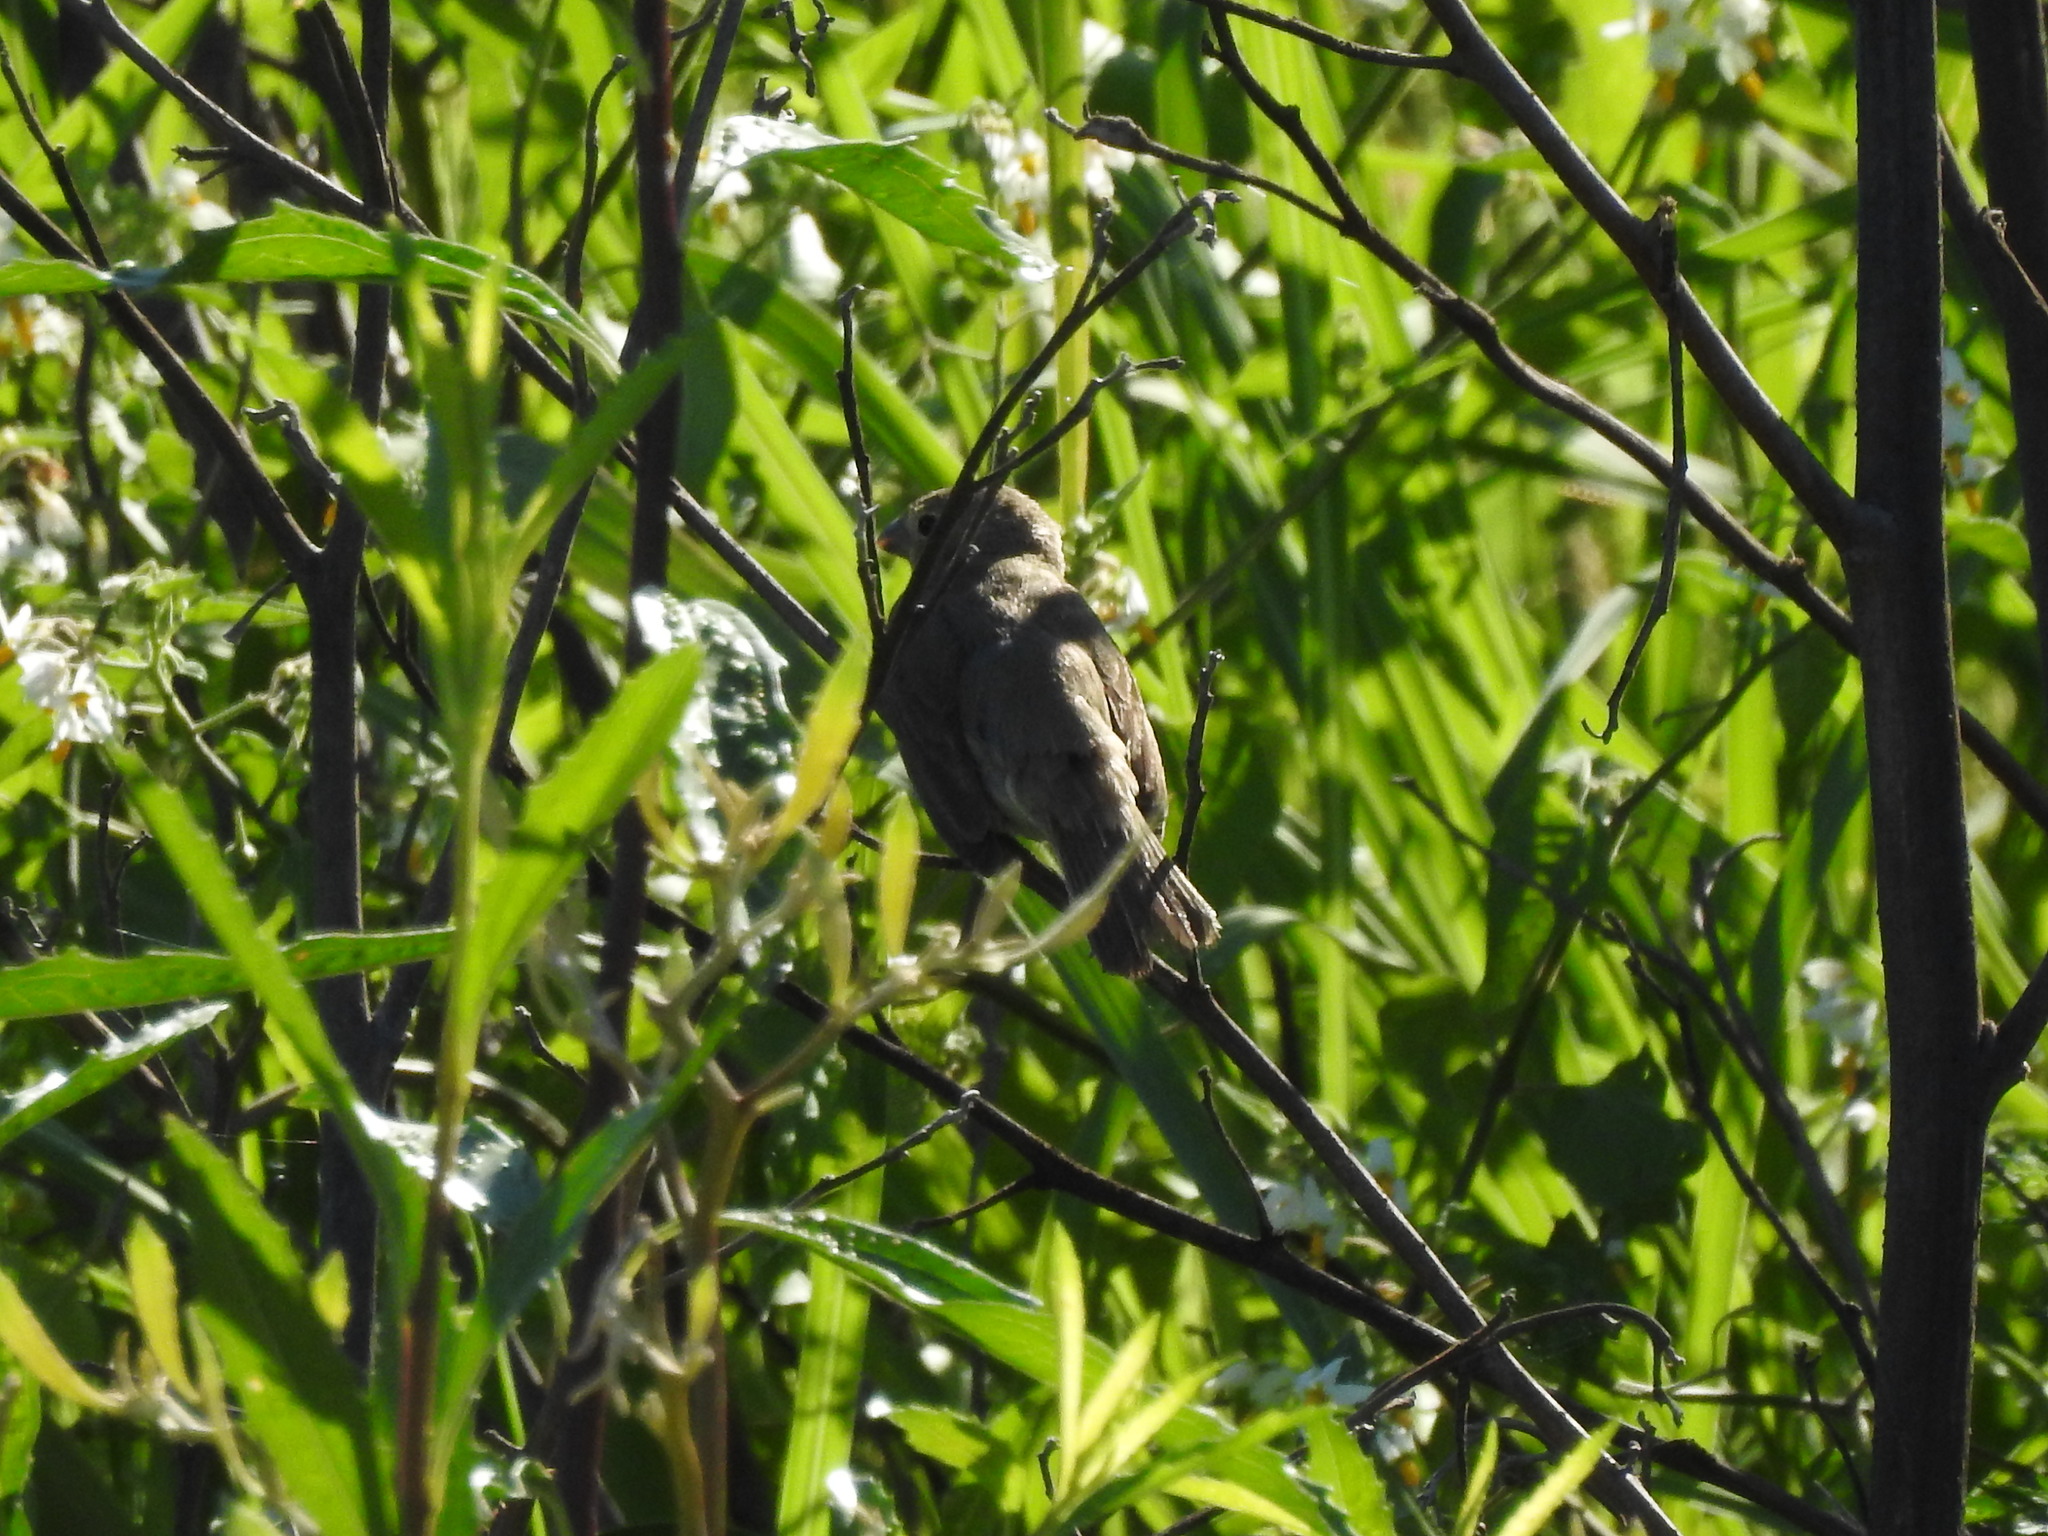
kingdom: Animalia
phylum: Chordata
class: Aves
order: Passeriformes
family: Thraupidae
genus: Sporophila
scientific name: Sporophila caerulescens
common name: Double-collared seedeater
